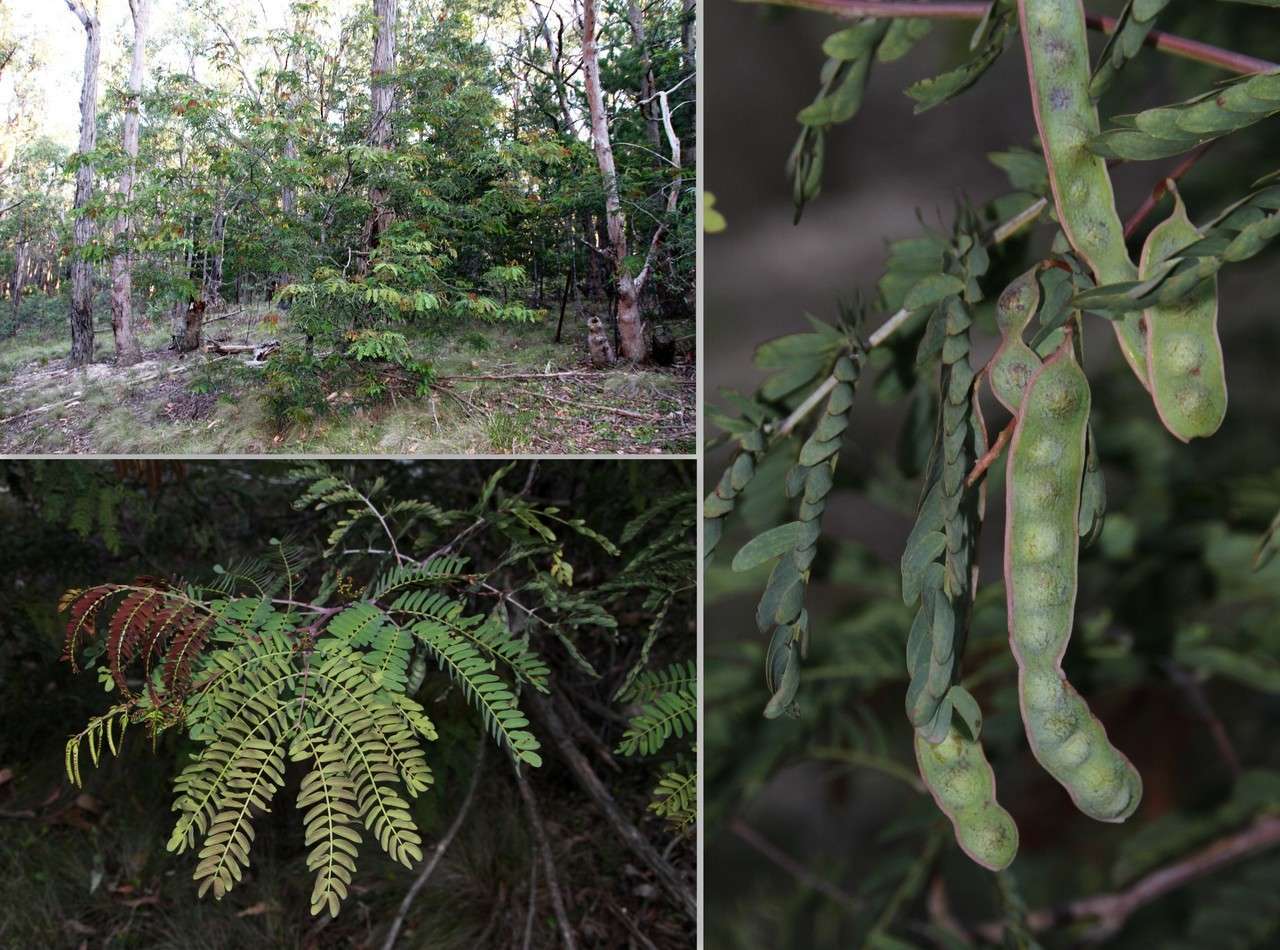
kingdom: Plantae
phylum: Tracheophyta
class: Magnoliopsida
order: Fabales
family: Fabaceae
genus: Acacia
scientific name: Acacia schinoides
